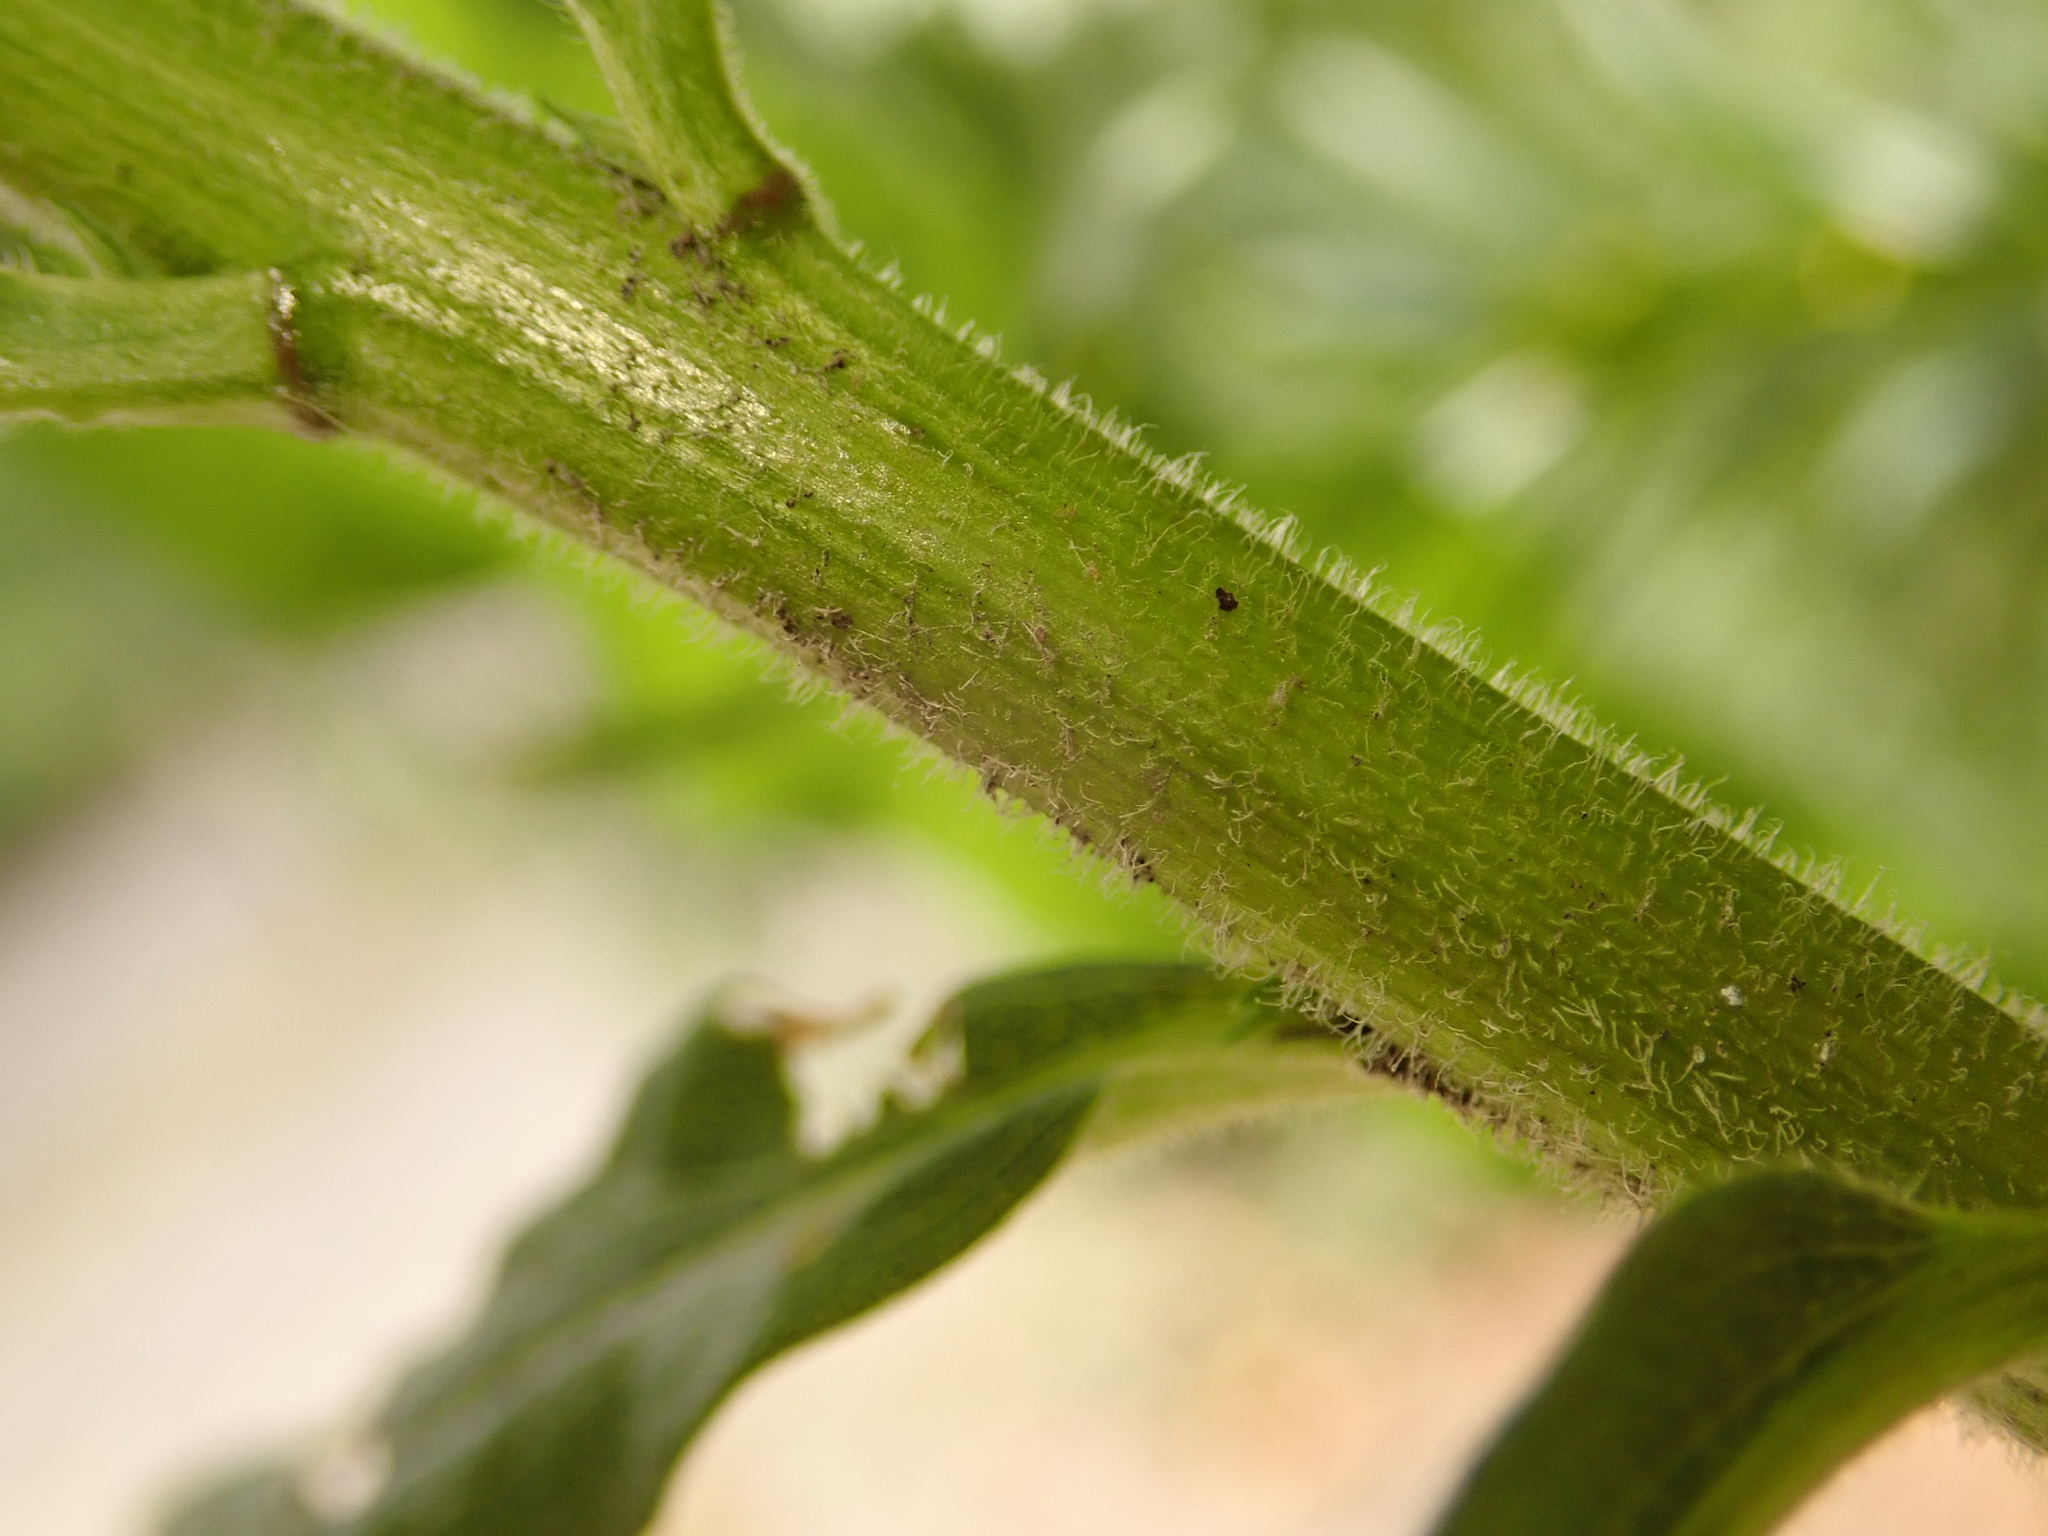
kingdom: Plantae
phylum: Tracheophyta
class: Magnoliopsida
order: Asterales
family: Asteraceae
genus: Solidago
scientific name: Solidago canadensis
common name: Canada goldenrod
